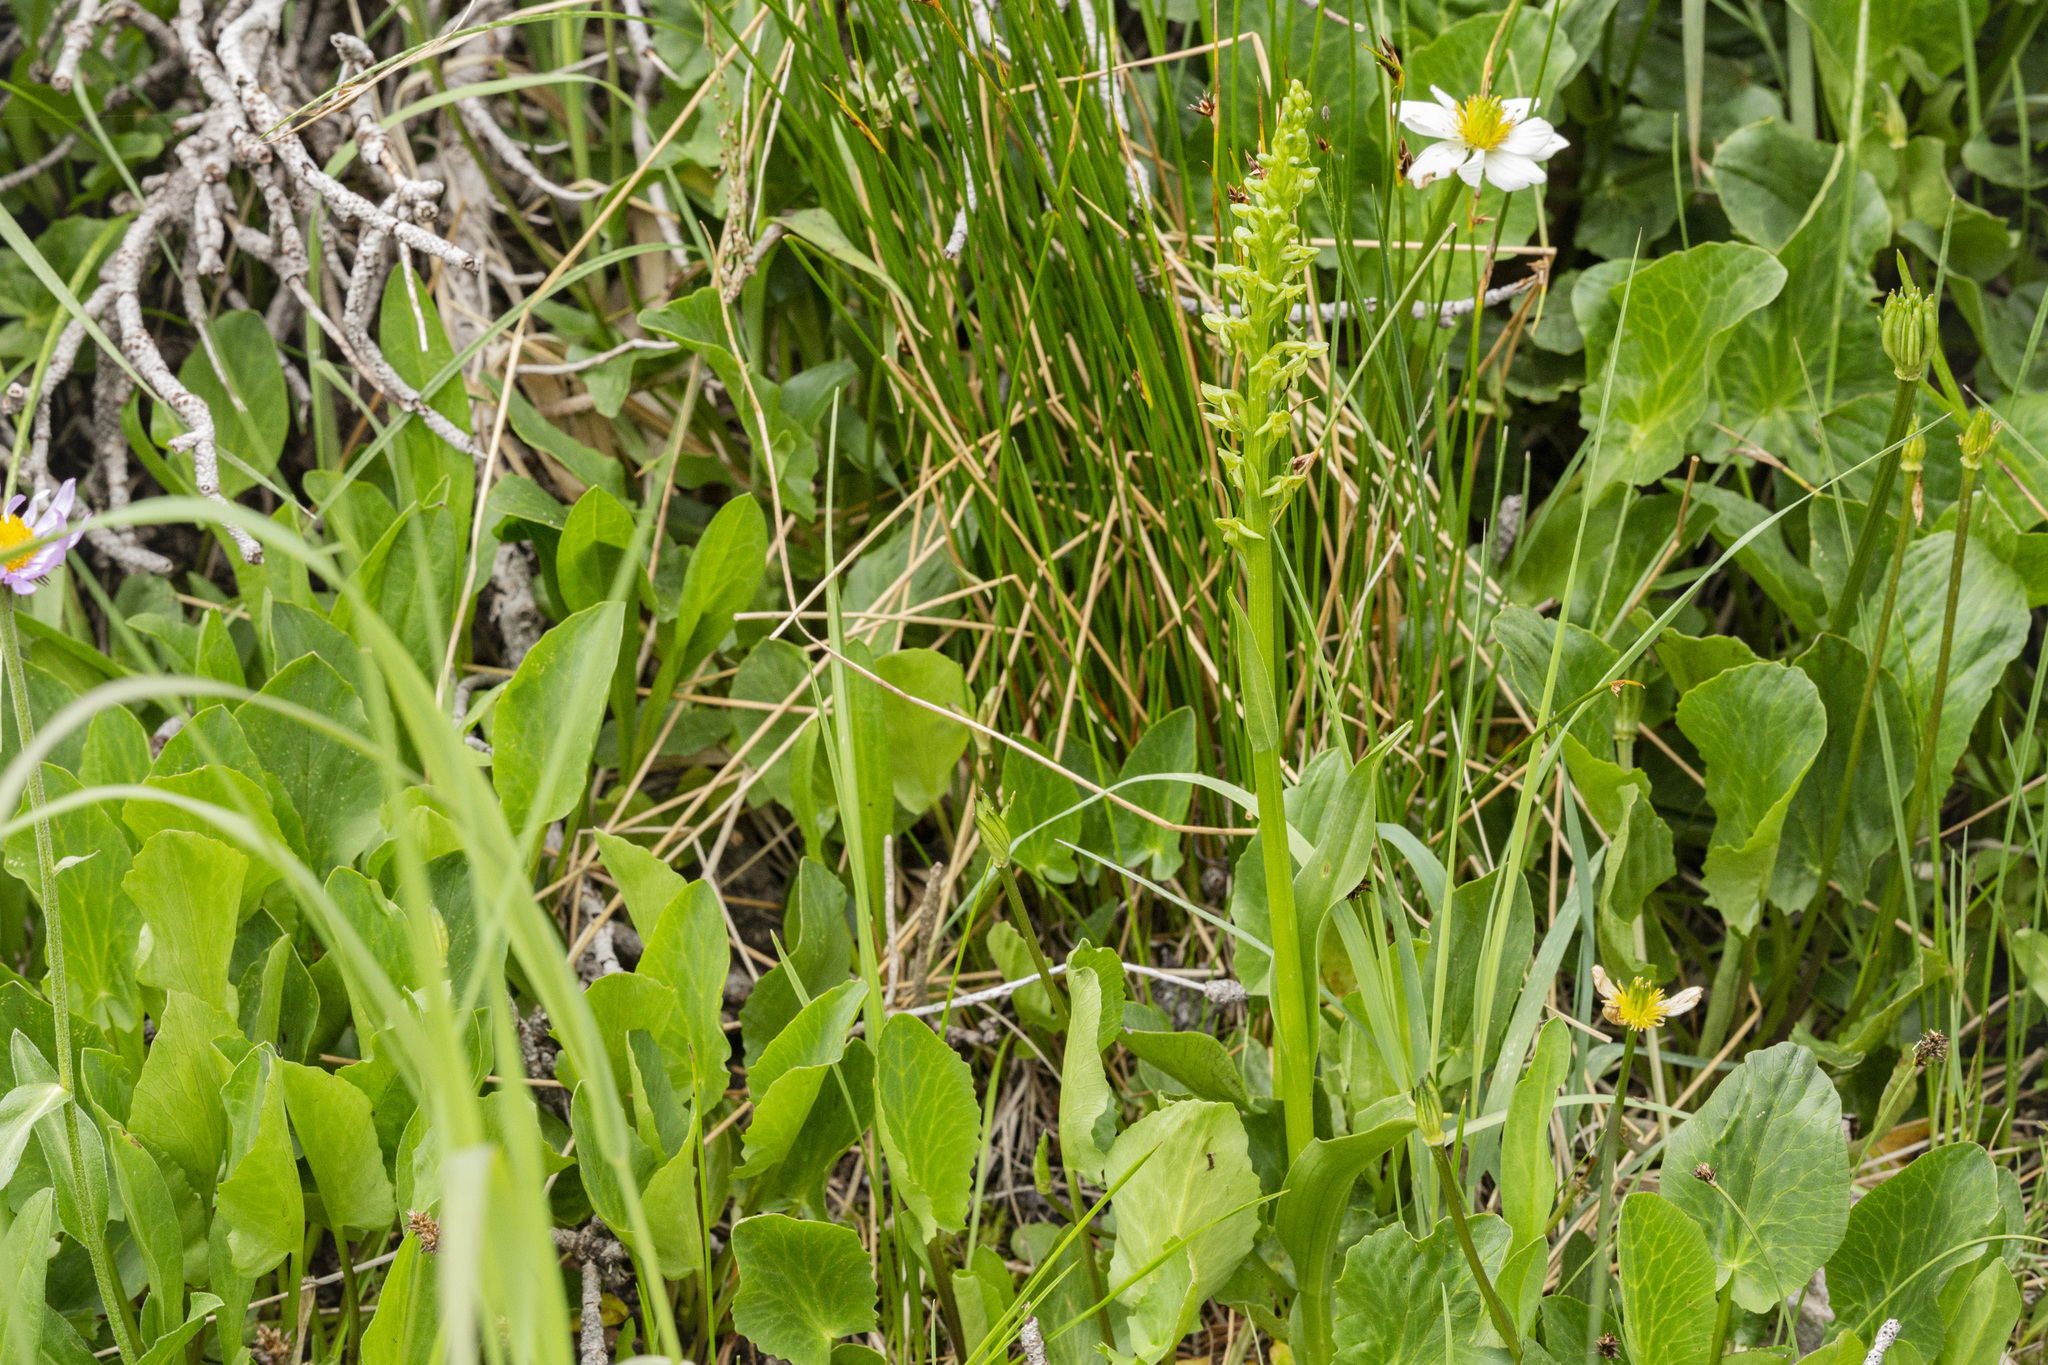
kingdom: Plantae
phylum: Tracheophyta
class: Liliopsida
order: Asparagales
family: Orchidaceae
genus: Platanthera
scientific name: Platanthera purpurascens
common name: Purple-petal bog orchid
